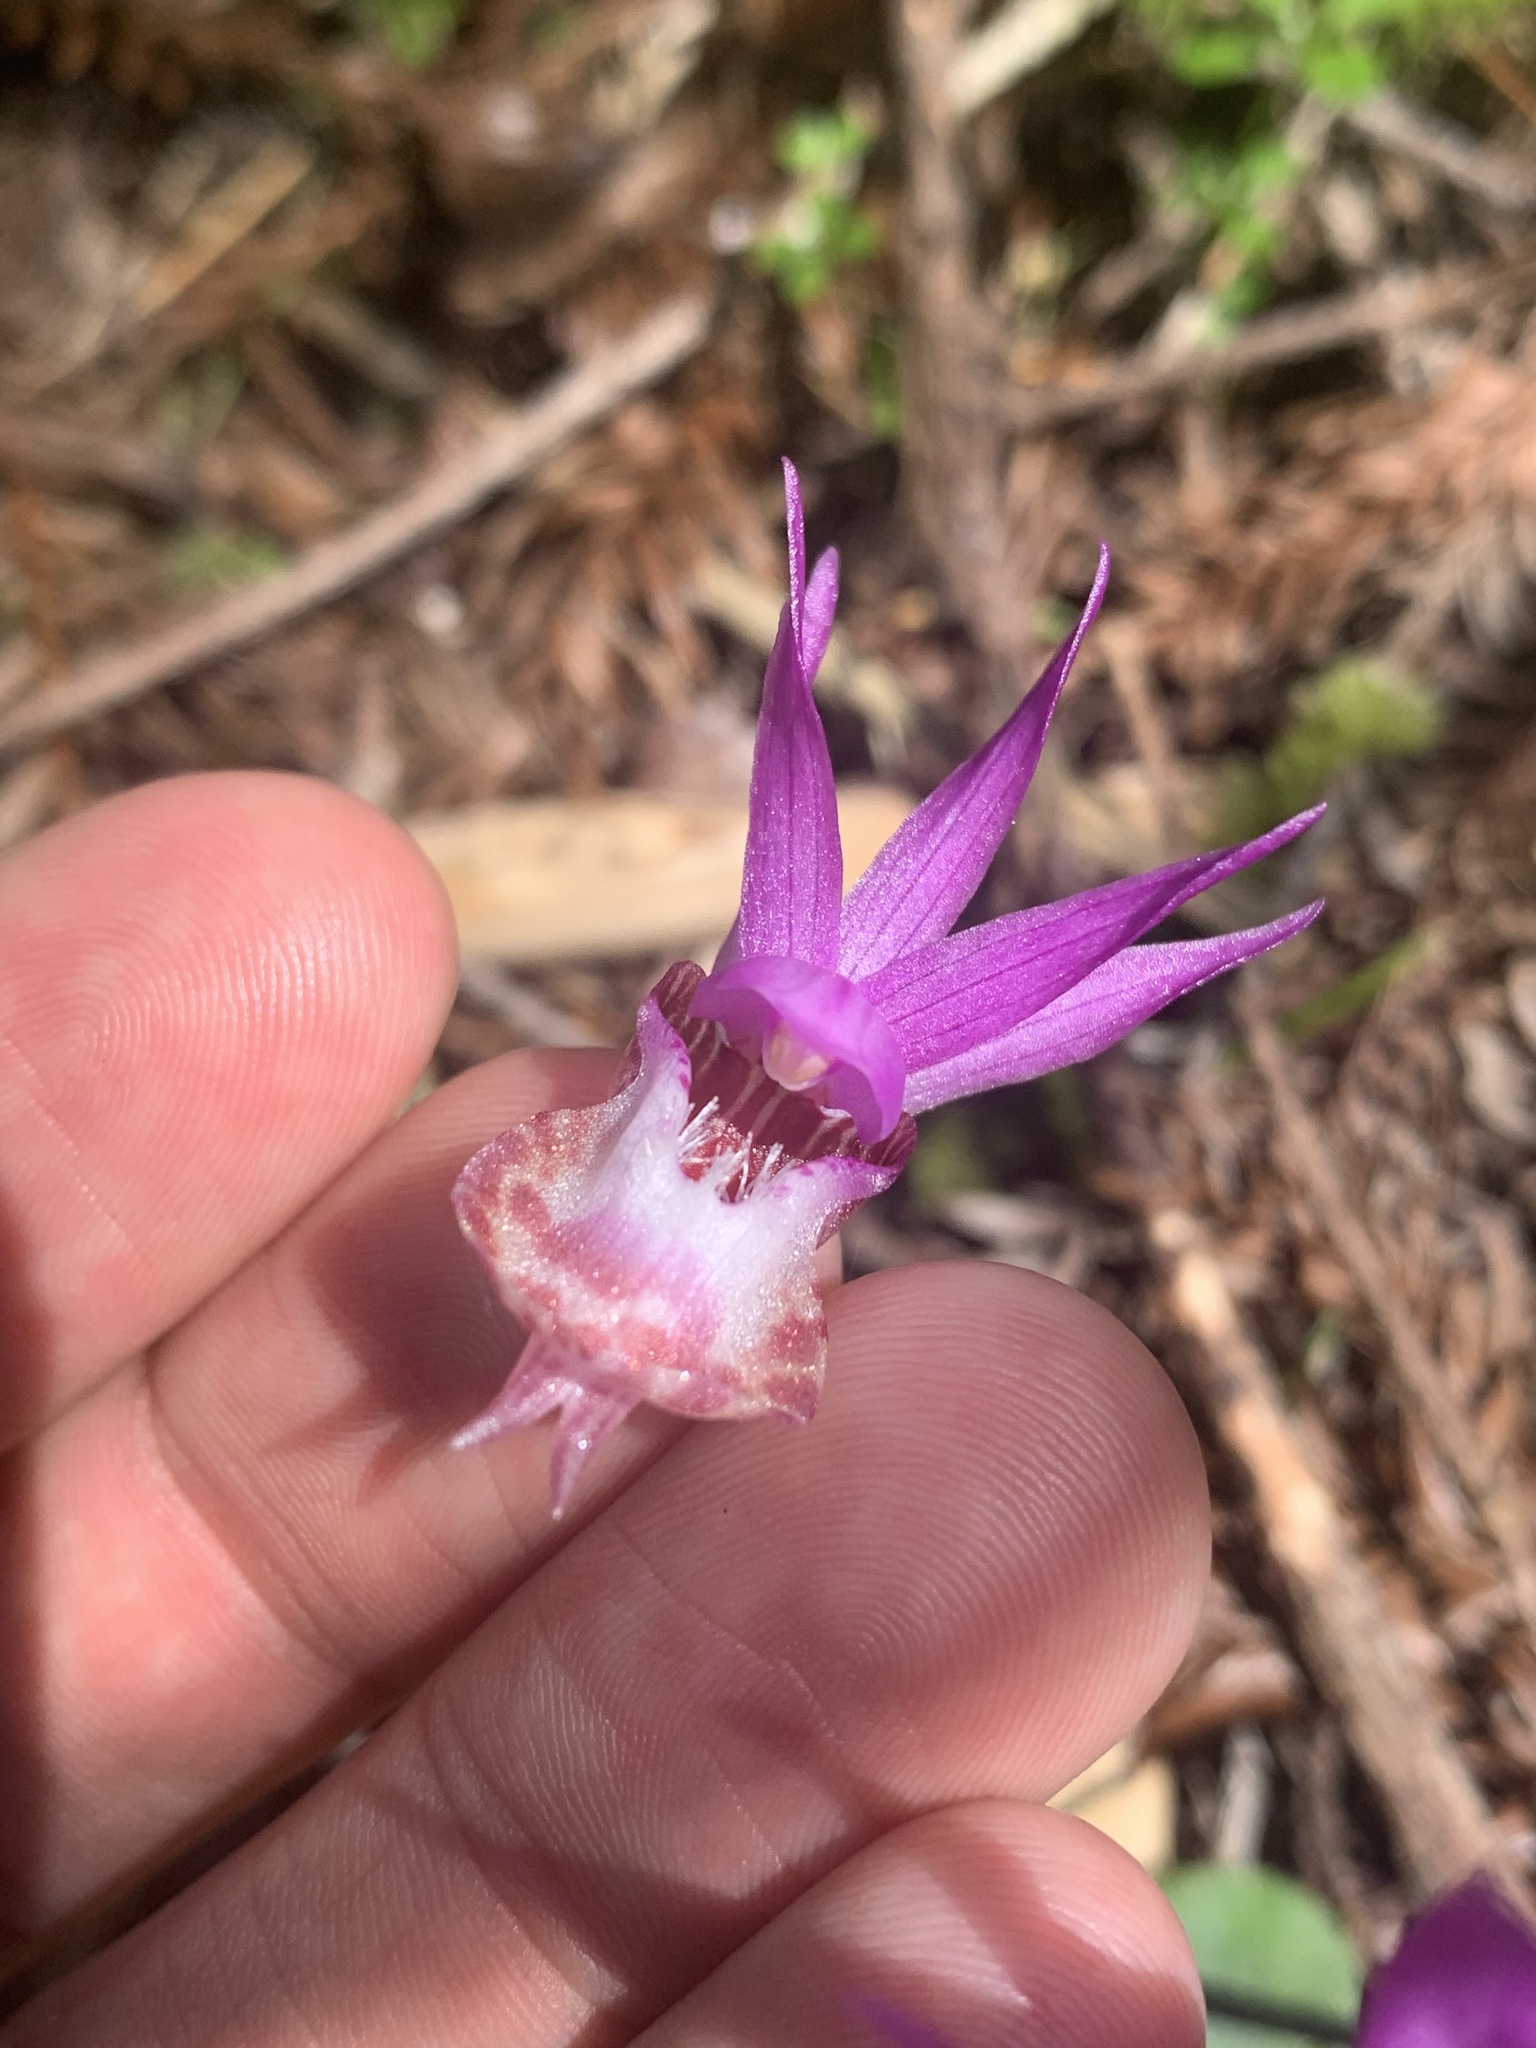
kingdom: Plantae
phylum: Tracheophyta
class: Liliopsida
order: Asparagales
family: Orchidaceae
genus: Calypso
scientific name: Calypso bulbosa
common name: Calypso
